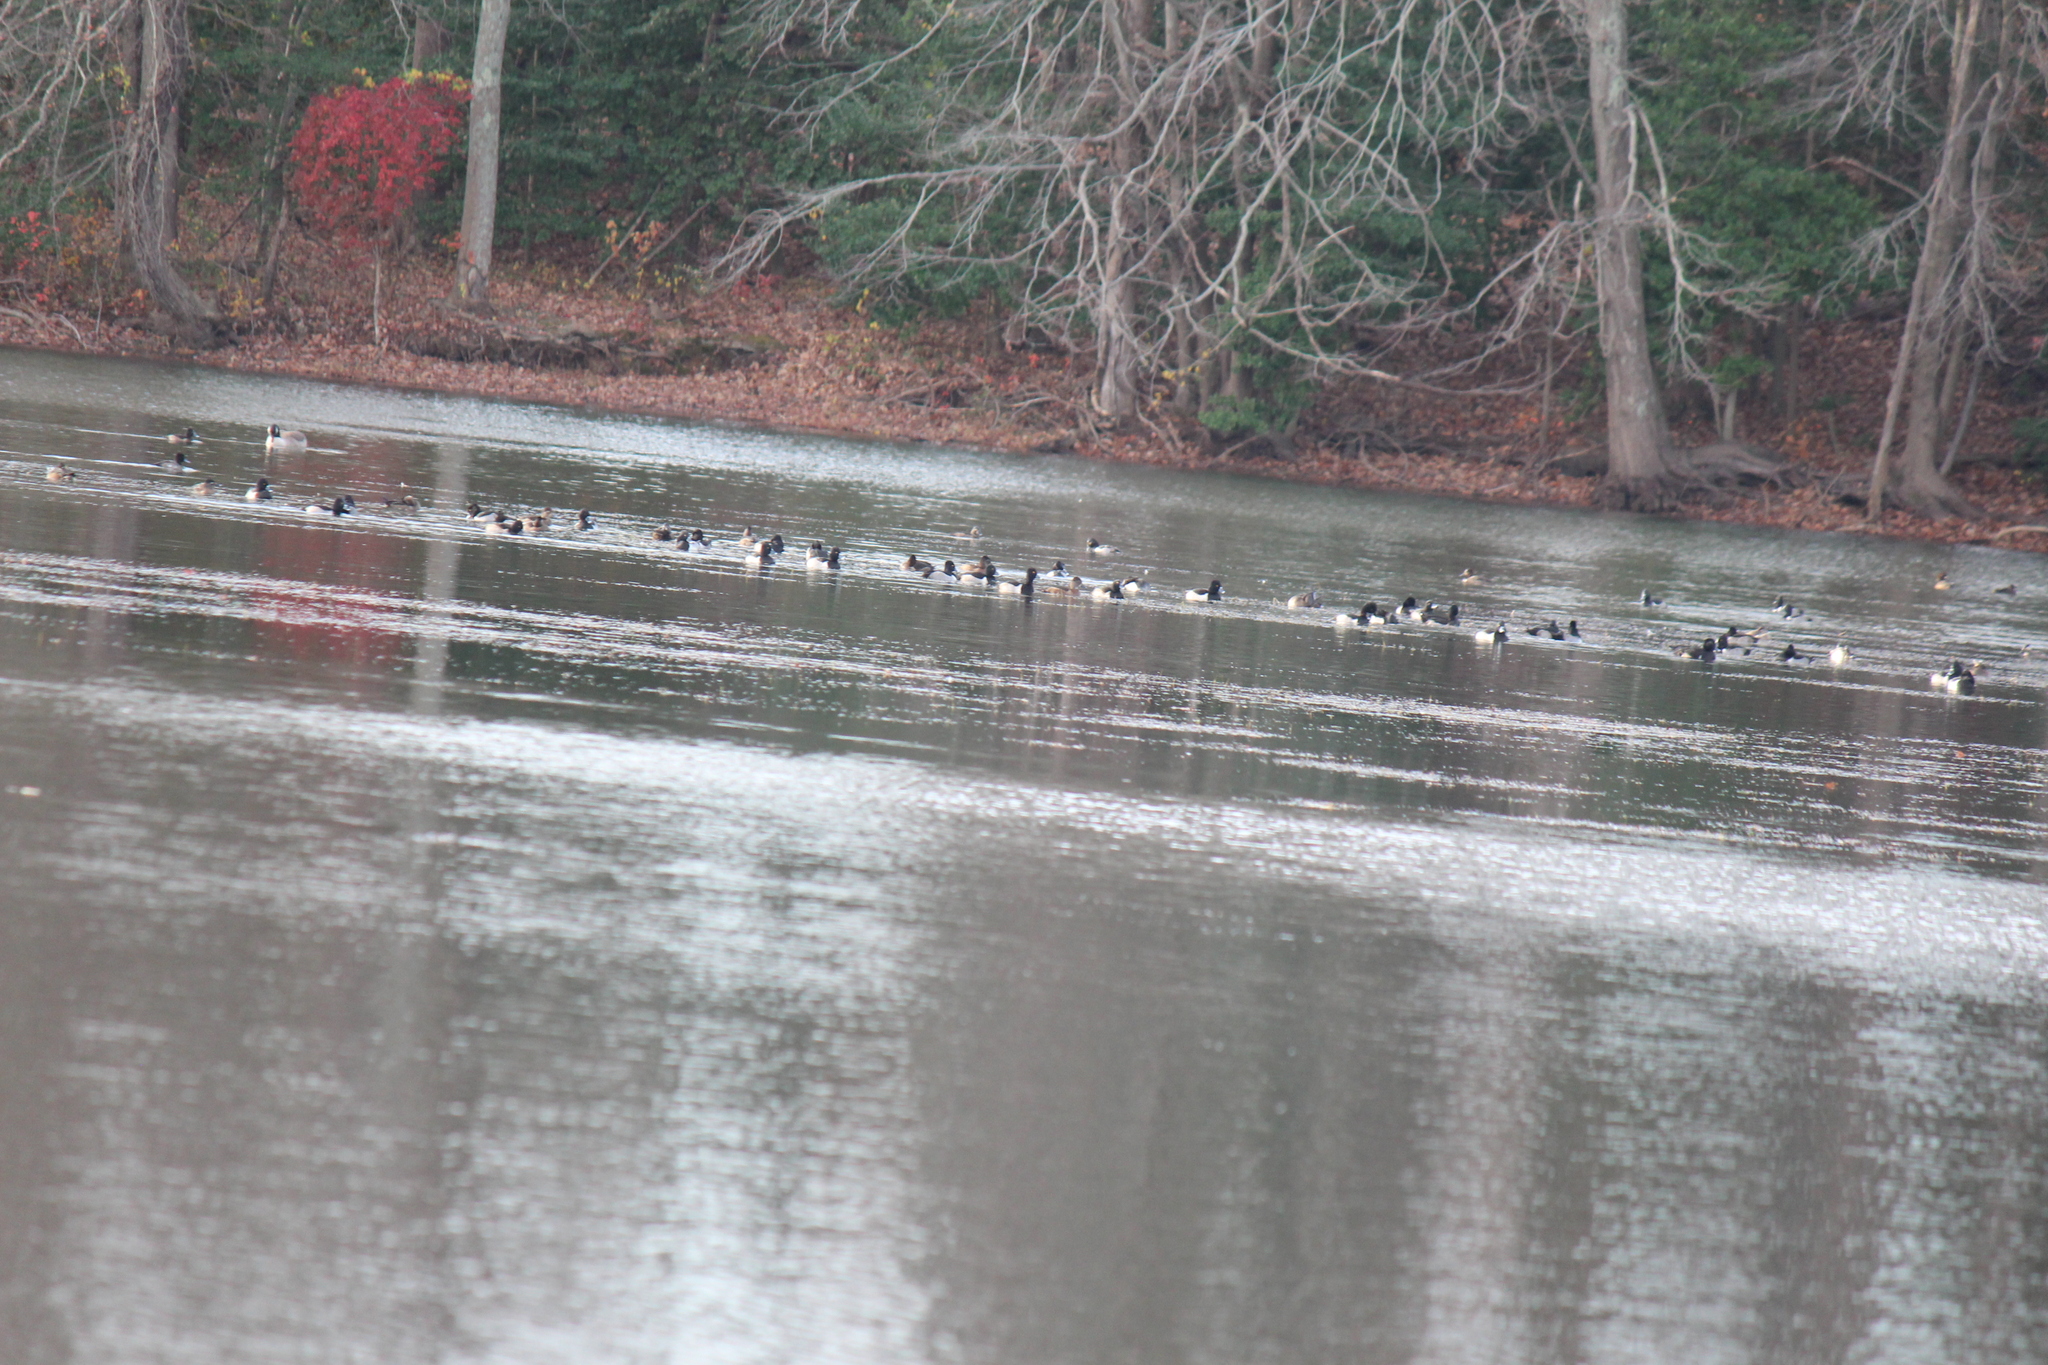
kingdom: Animalia
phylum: Chordata
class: Aves
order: Anseriformes
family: Anatidae
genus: Aythya
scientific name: Aythya collaris
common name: Ring-necked duck
